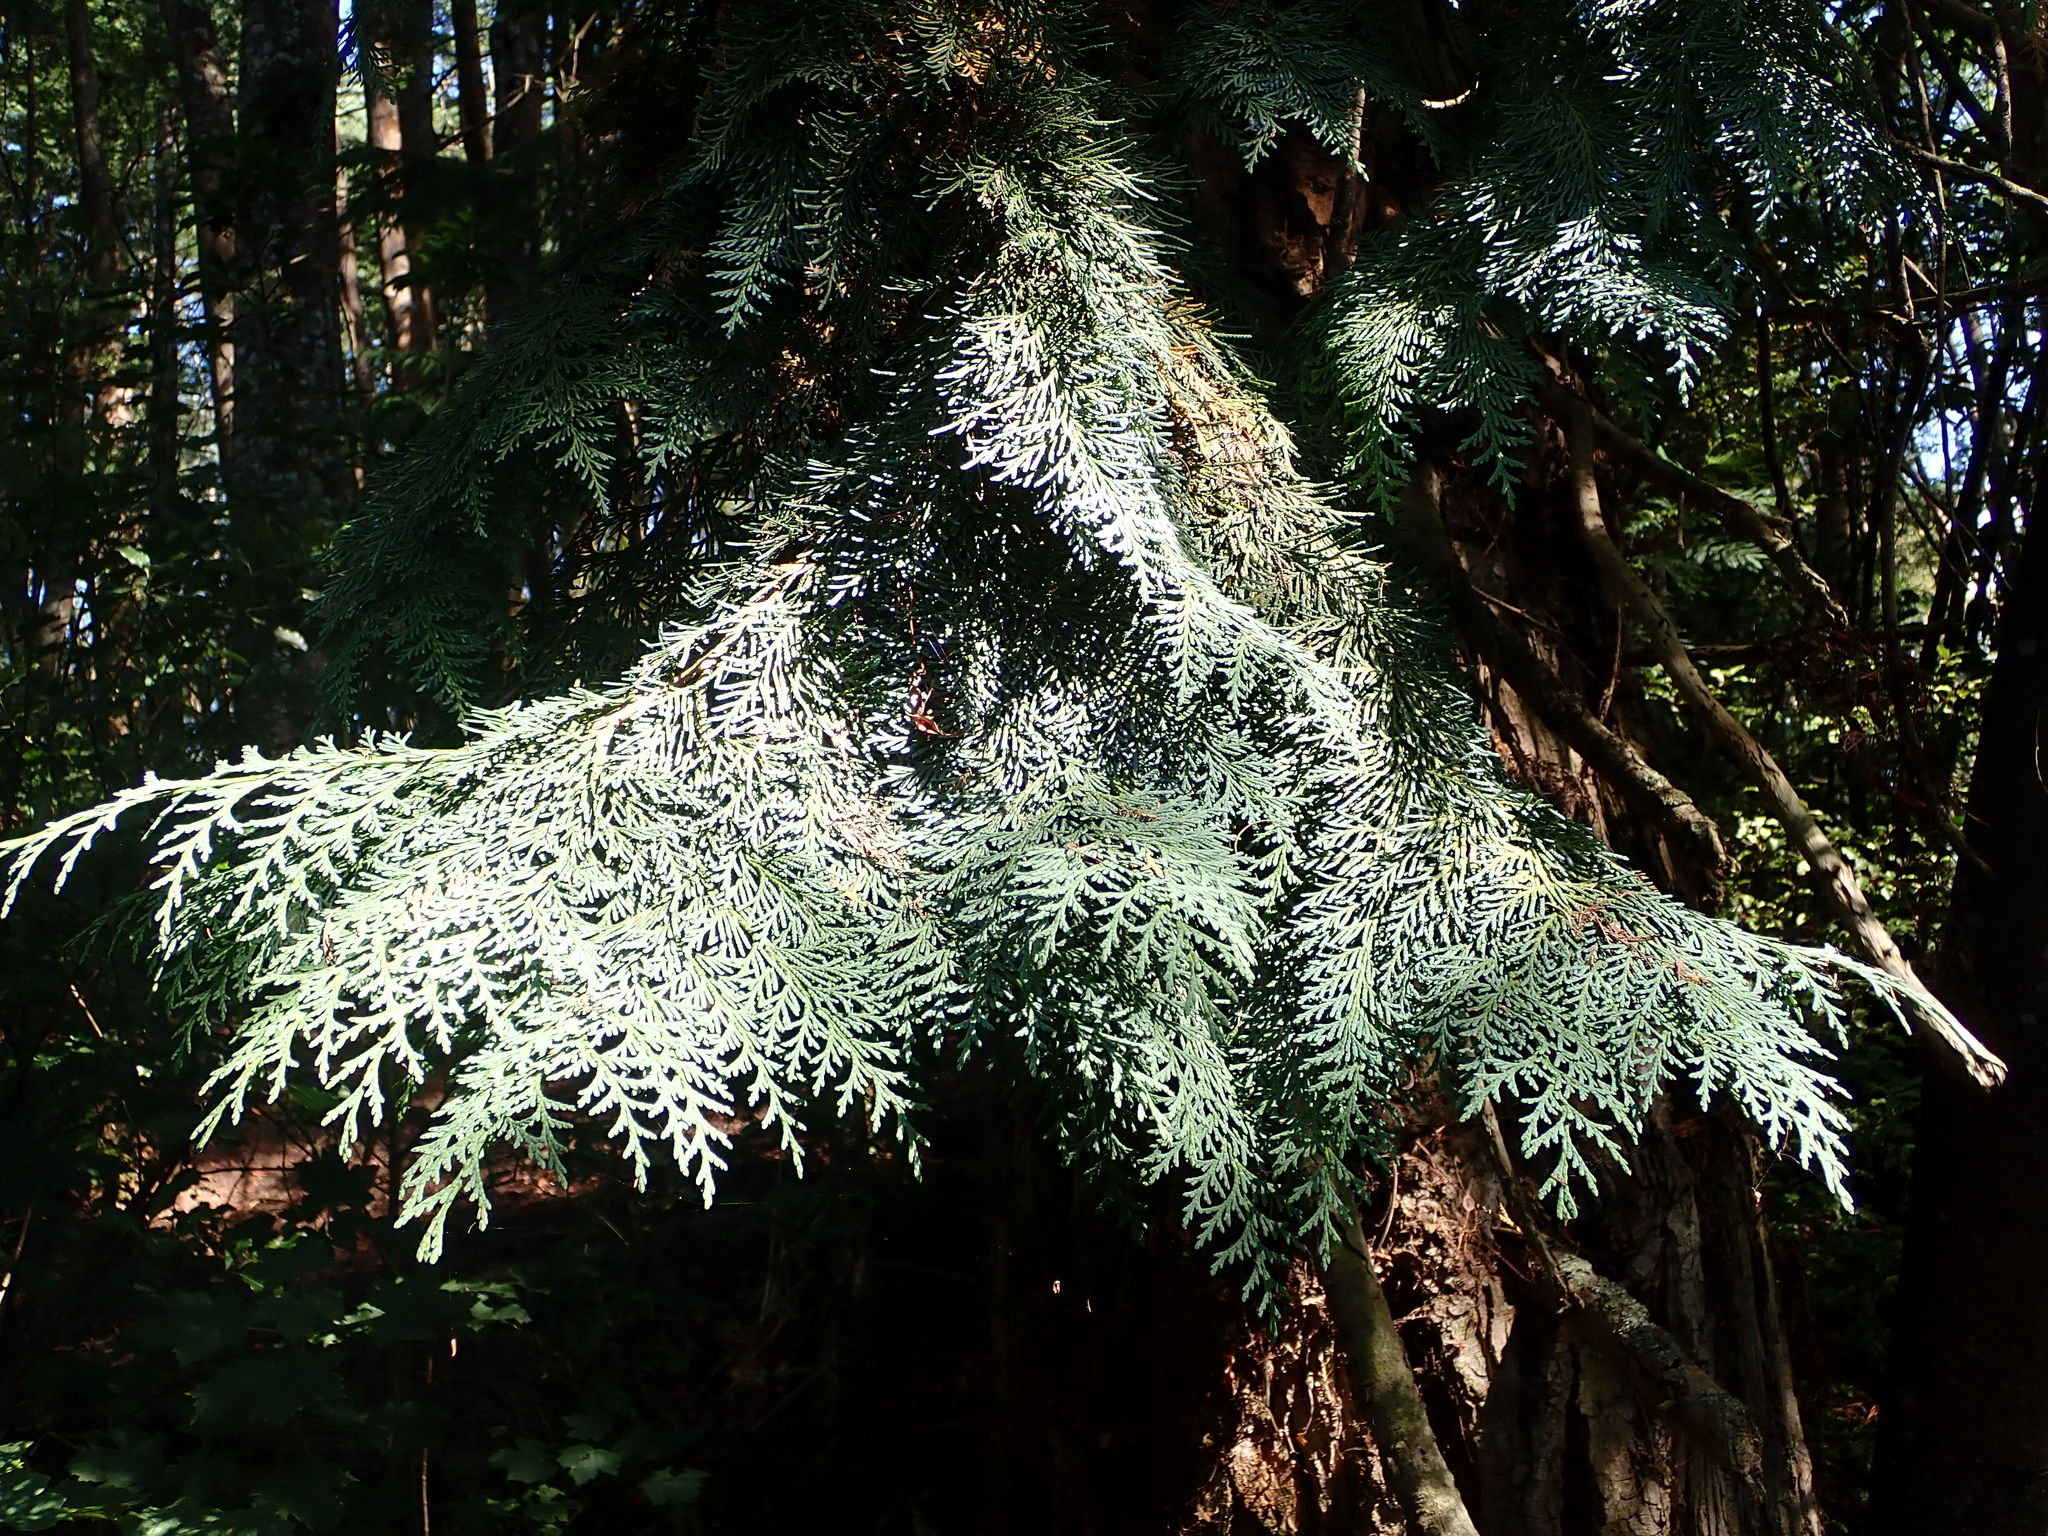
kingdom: Plantae
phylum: Tracheophyta
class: Pinopsida
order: Pinales
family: Cupressaceae
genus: Chamaecyparis
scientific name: Chamaecyparis lawsoniana
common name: Lawson's cypress
